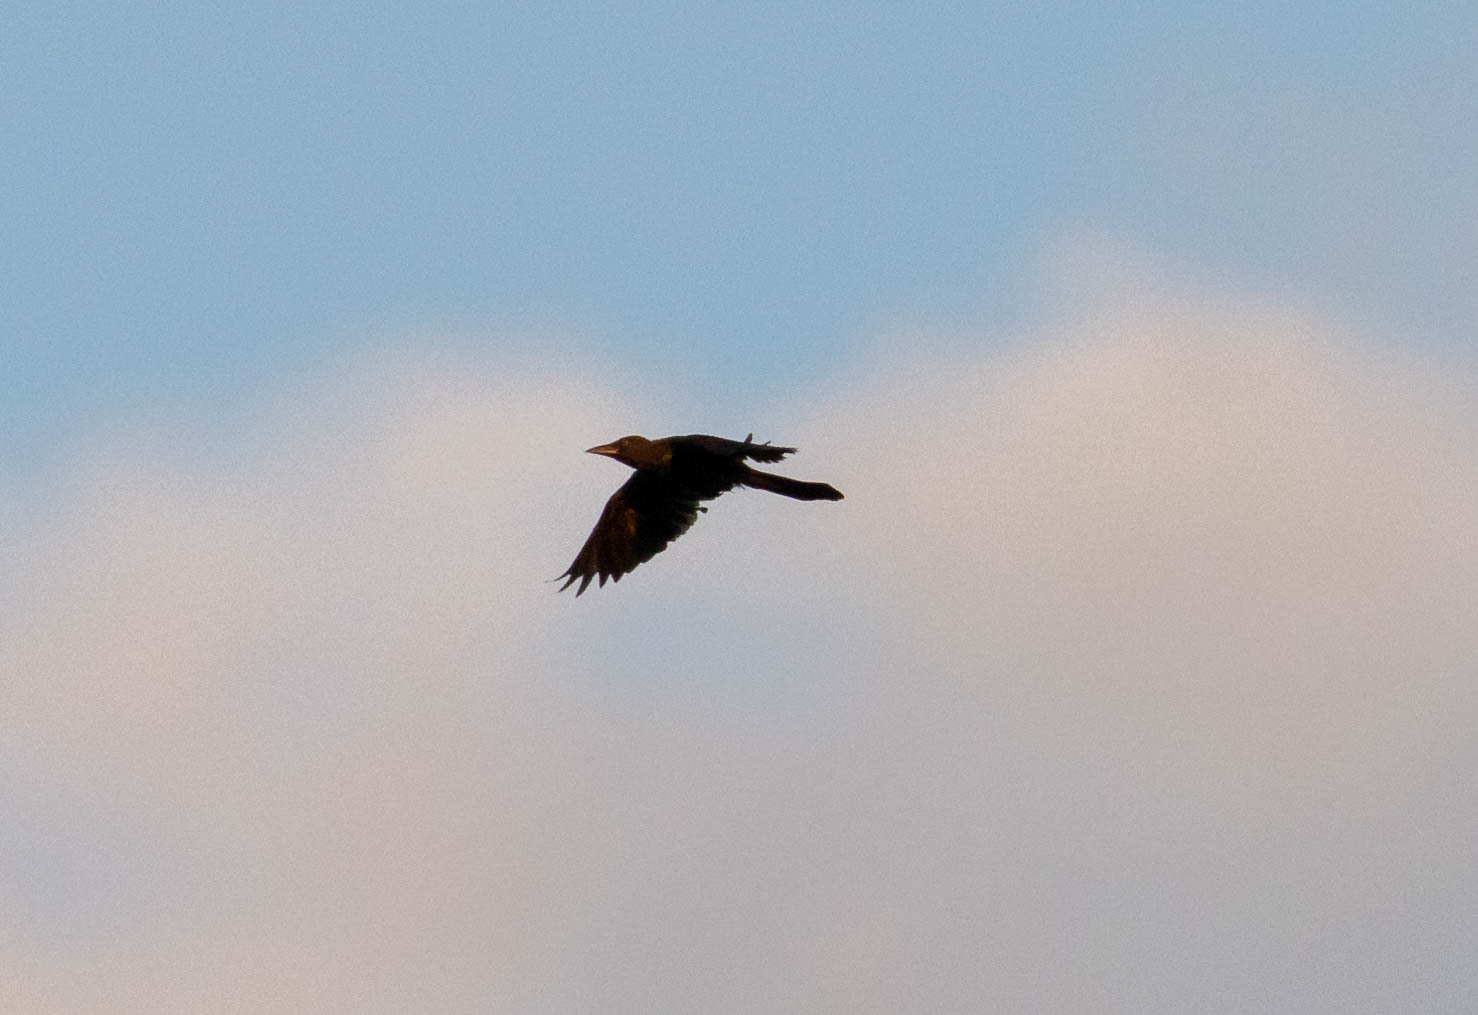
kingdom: Animalia
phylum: Chordata
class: Aves
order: Passeriformes
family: Icteridae
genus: Quiscalus
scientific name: Quiscalus quiscula
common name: Common grackle
